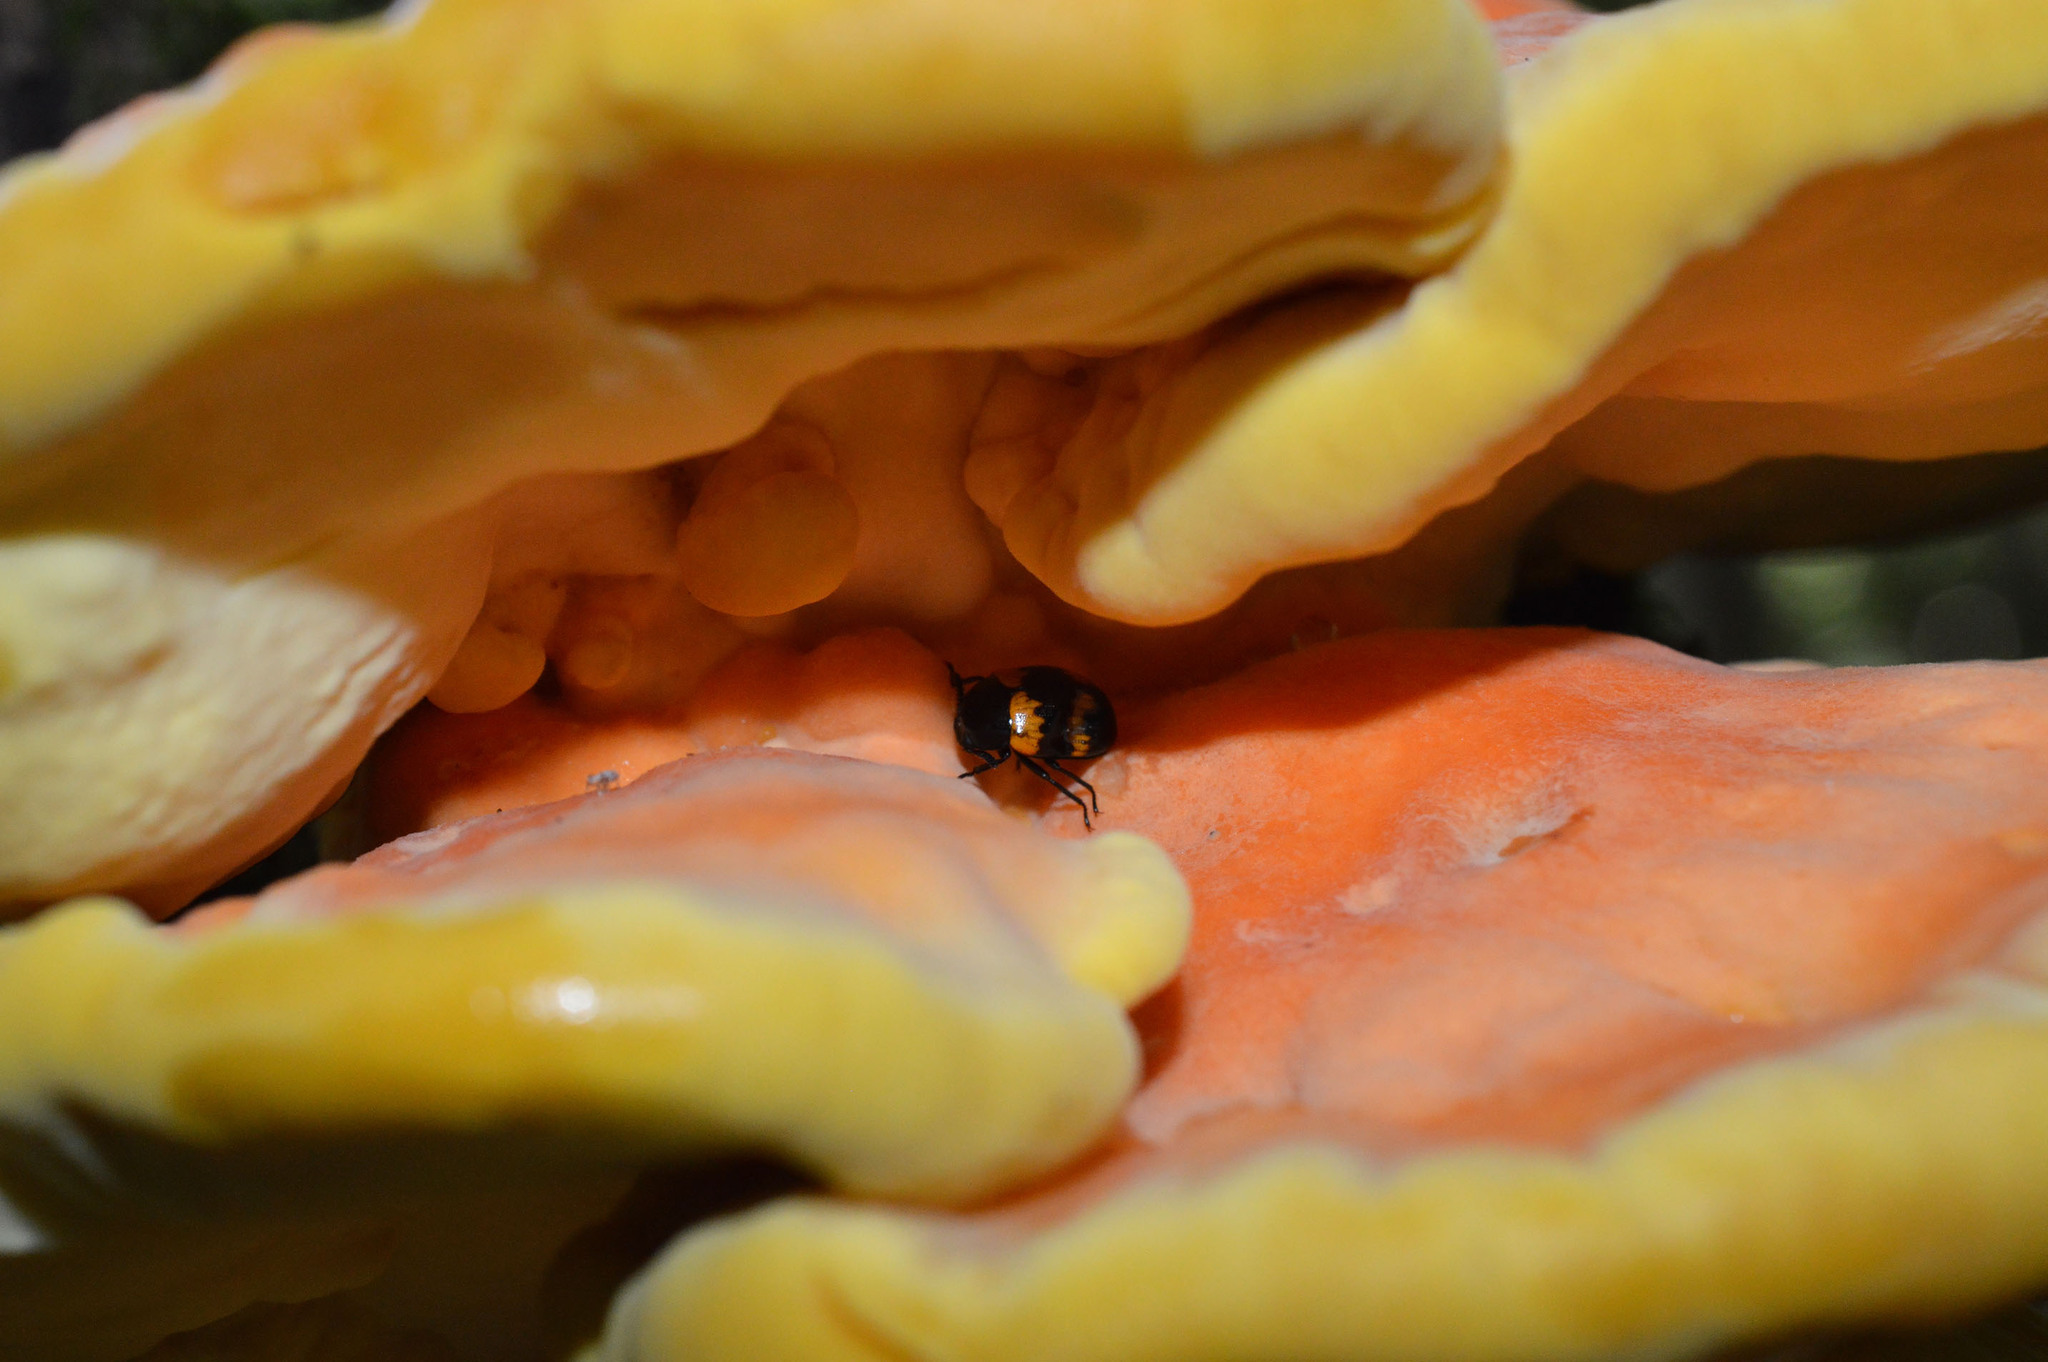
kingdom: Animalia
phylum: Arthropoda
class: Insecta
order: Coleoptera
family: Tenebrionidae
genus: Diaperis
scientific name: Diaperis boleti
